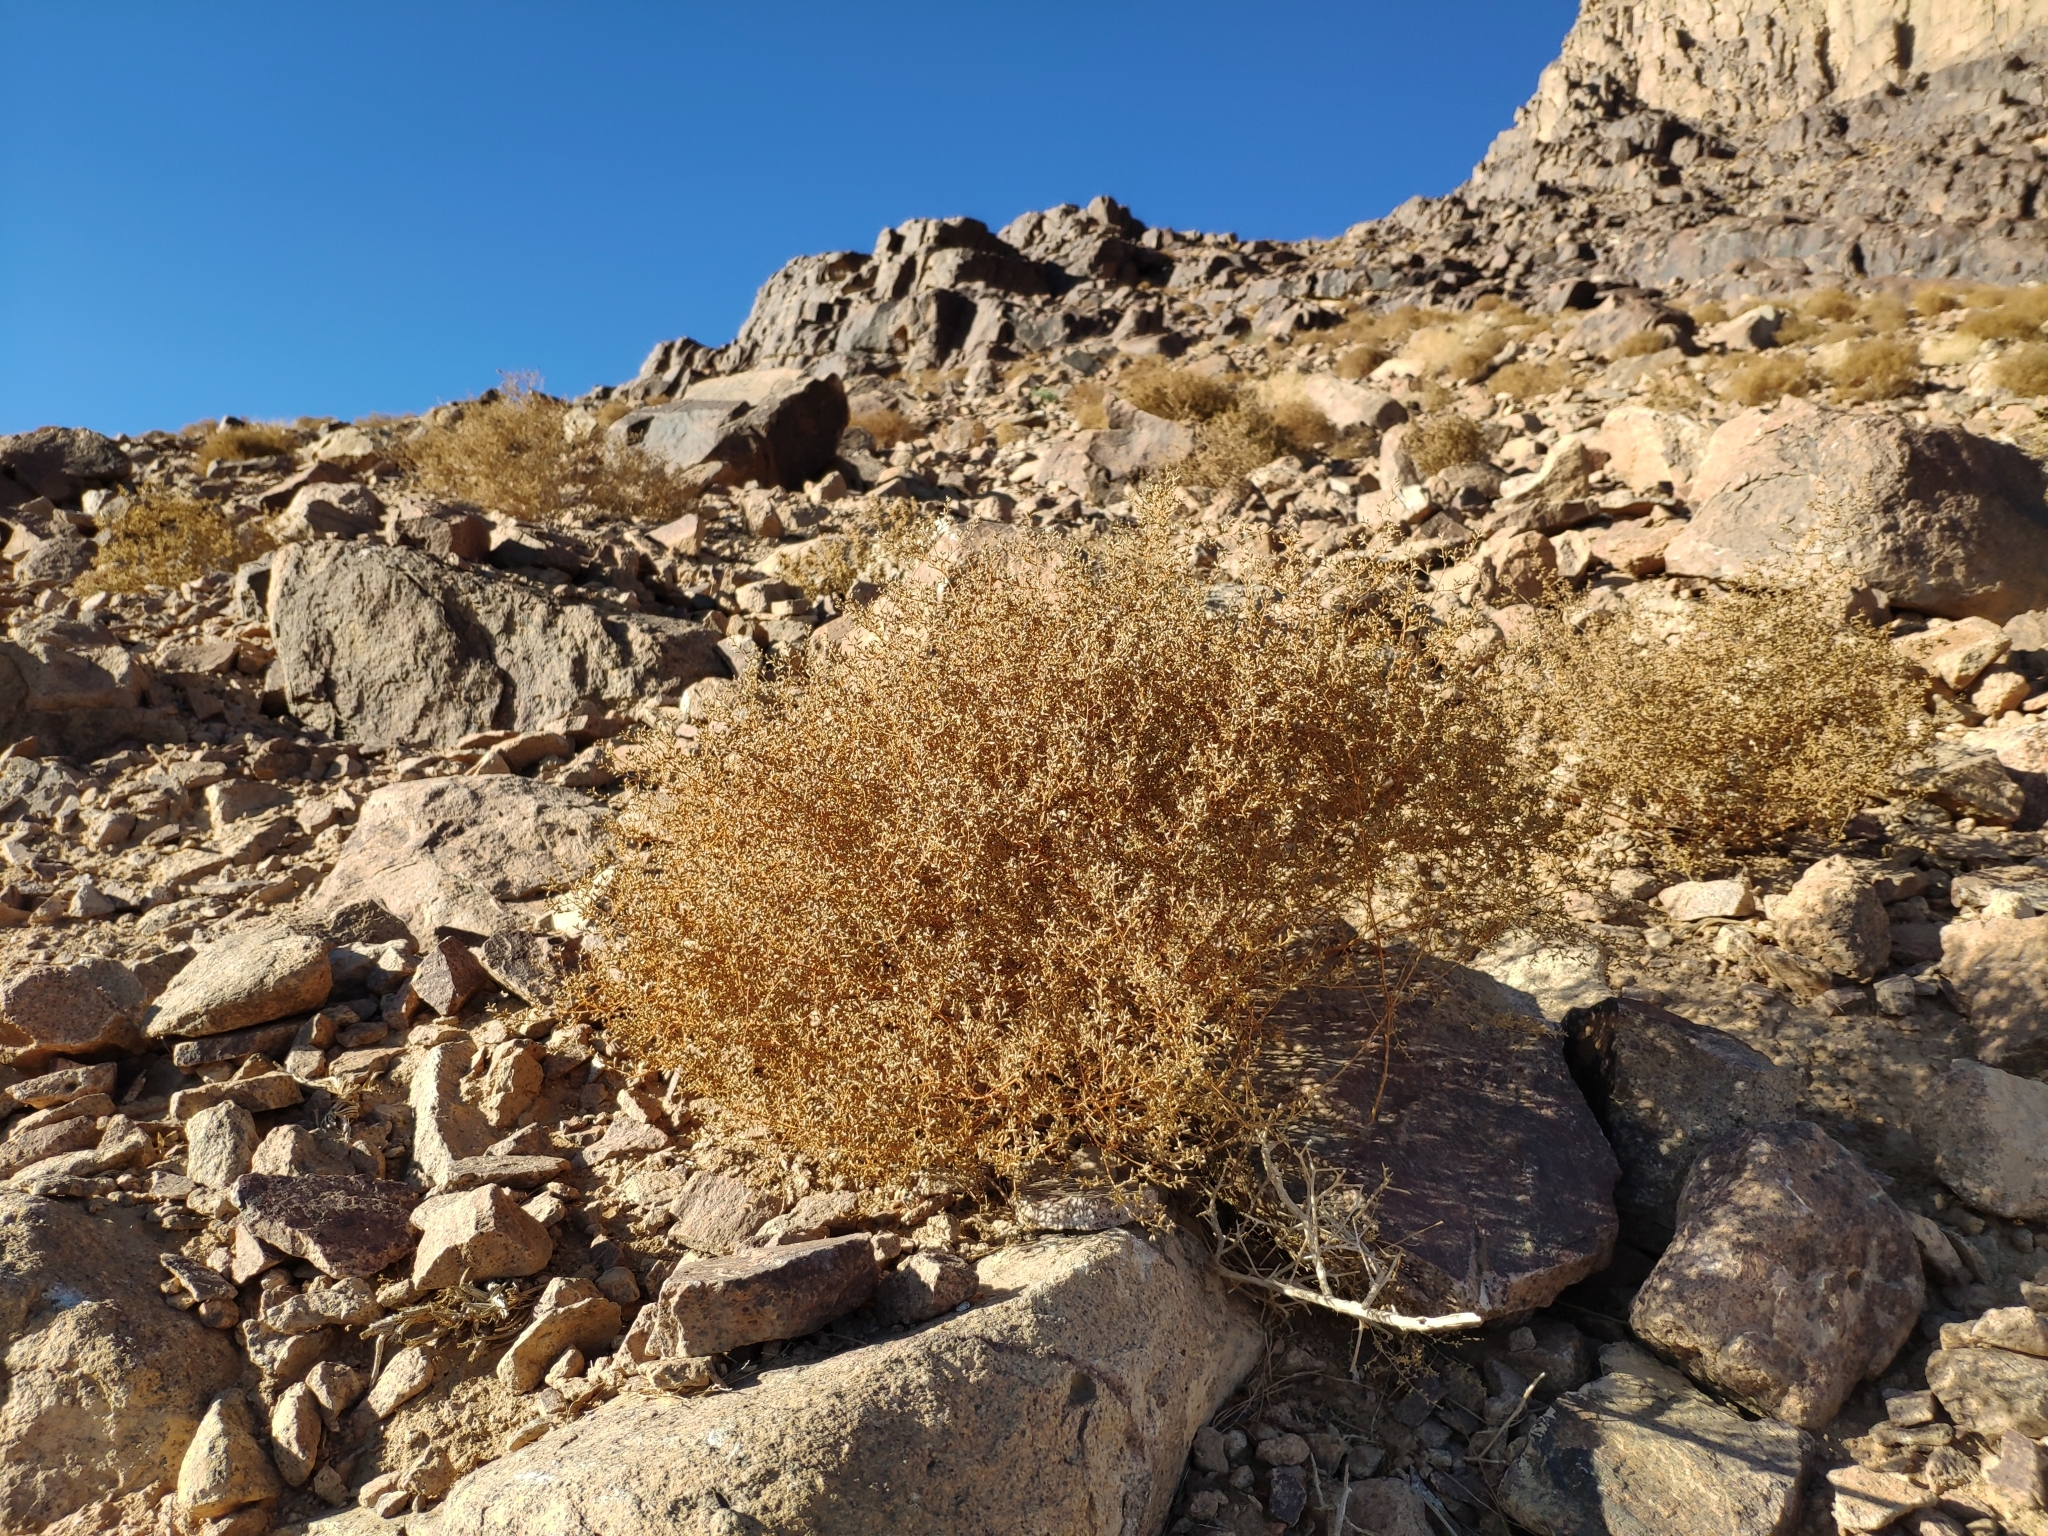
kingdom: Plantae
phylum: Tracheophyta
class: Magnoliopsida
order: Asterales
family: Asteraceae
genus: Artemisia
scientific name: Artemisia sieberi
